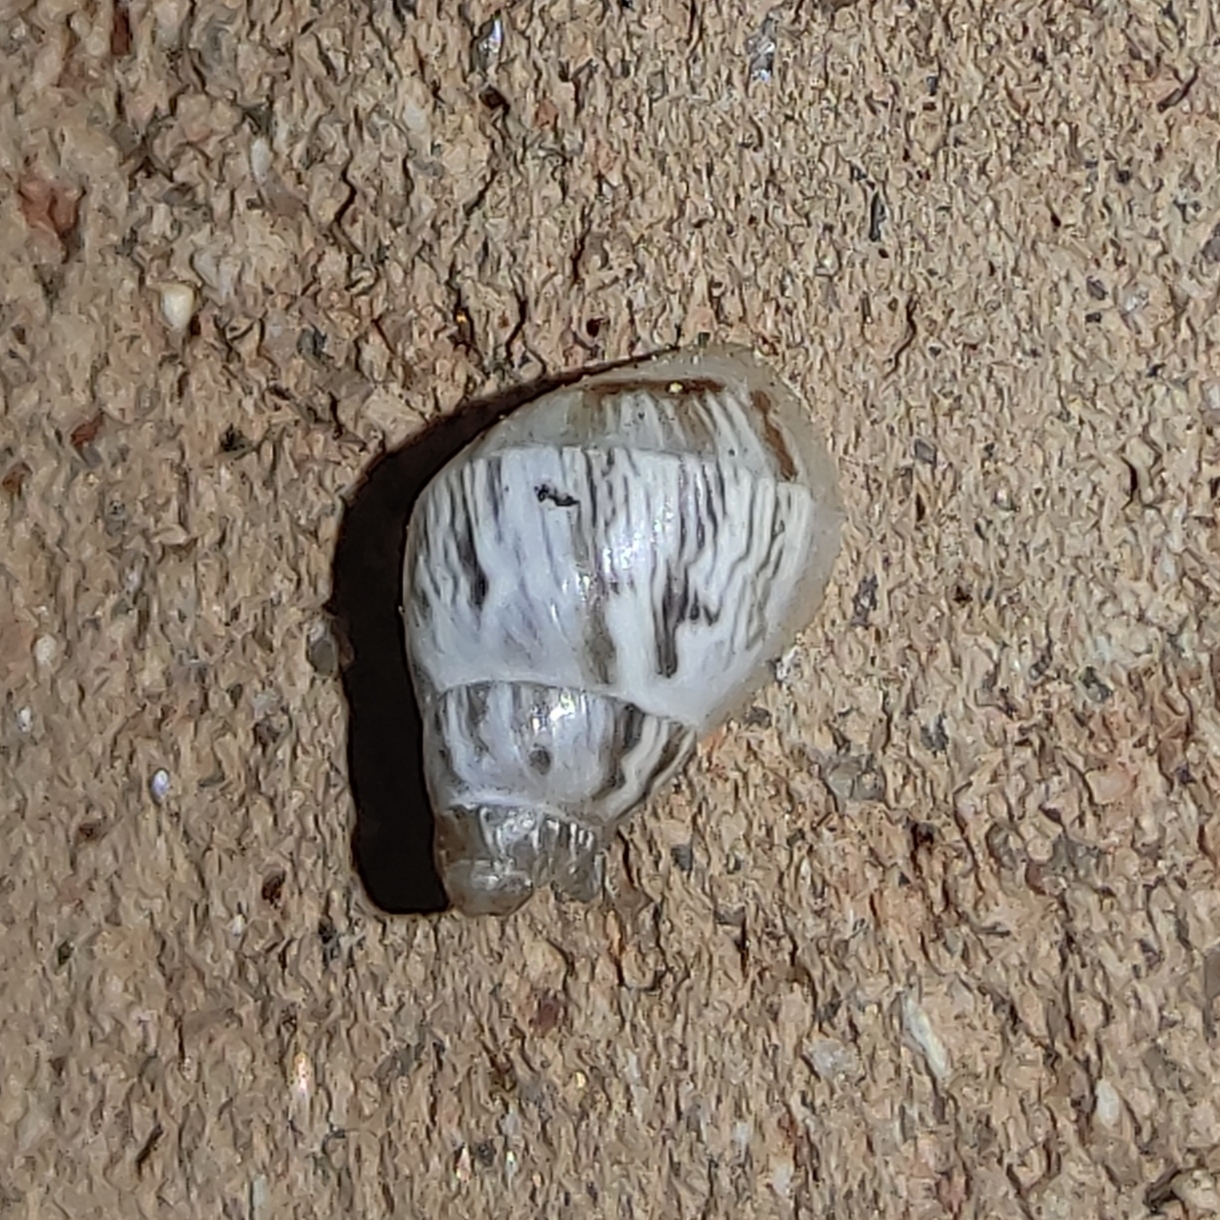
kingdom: Animalia
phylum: Mollusca
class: Gastropoda
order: Stylommatophora
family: Bulimulidae
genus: Drymaeus
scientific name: Drymaeus papyraceus
